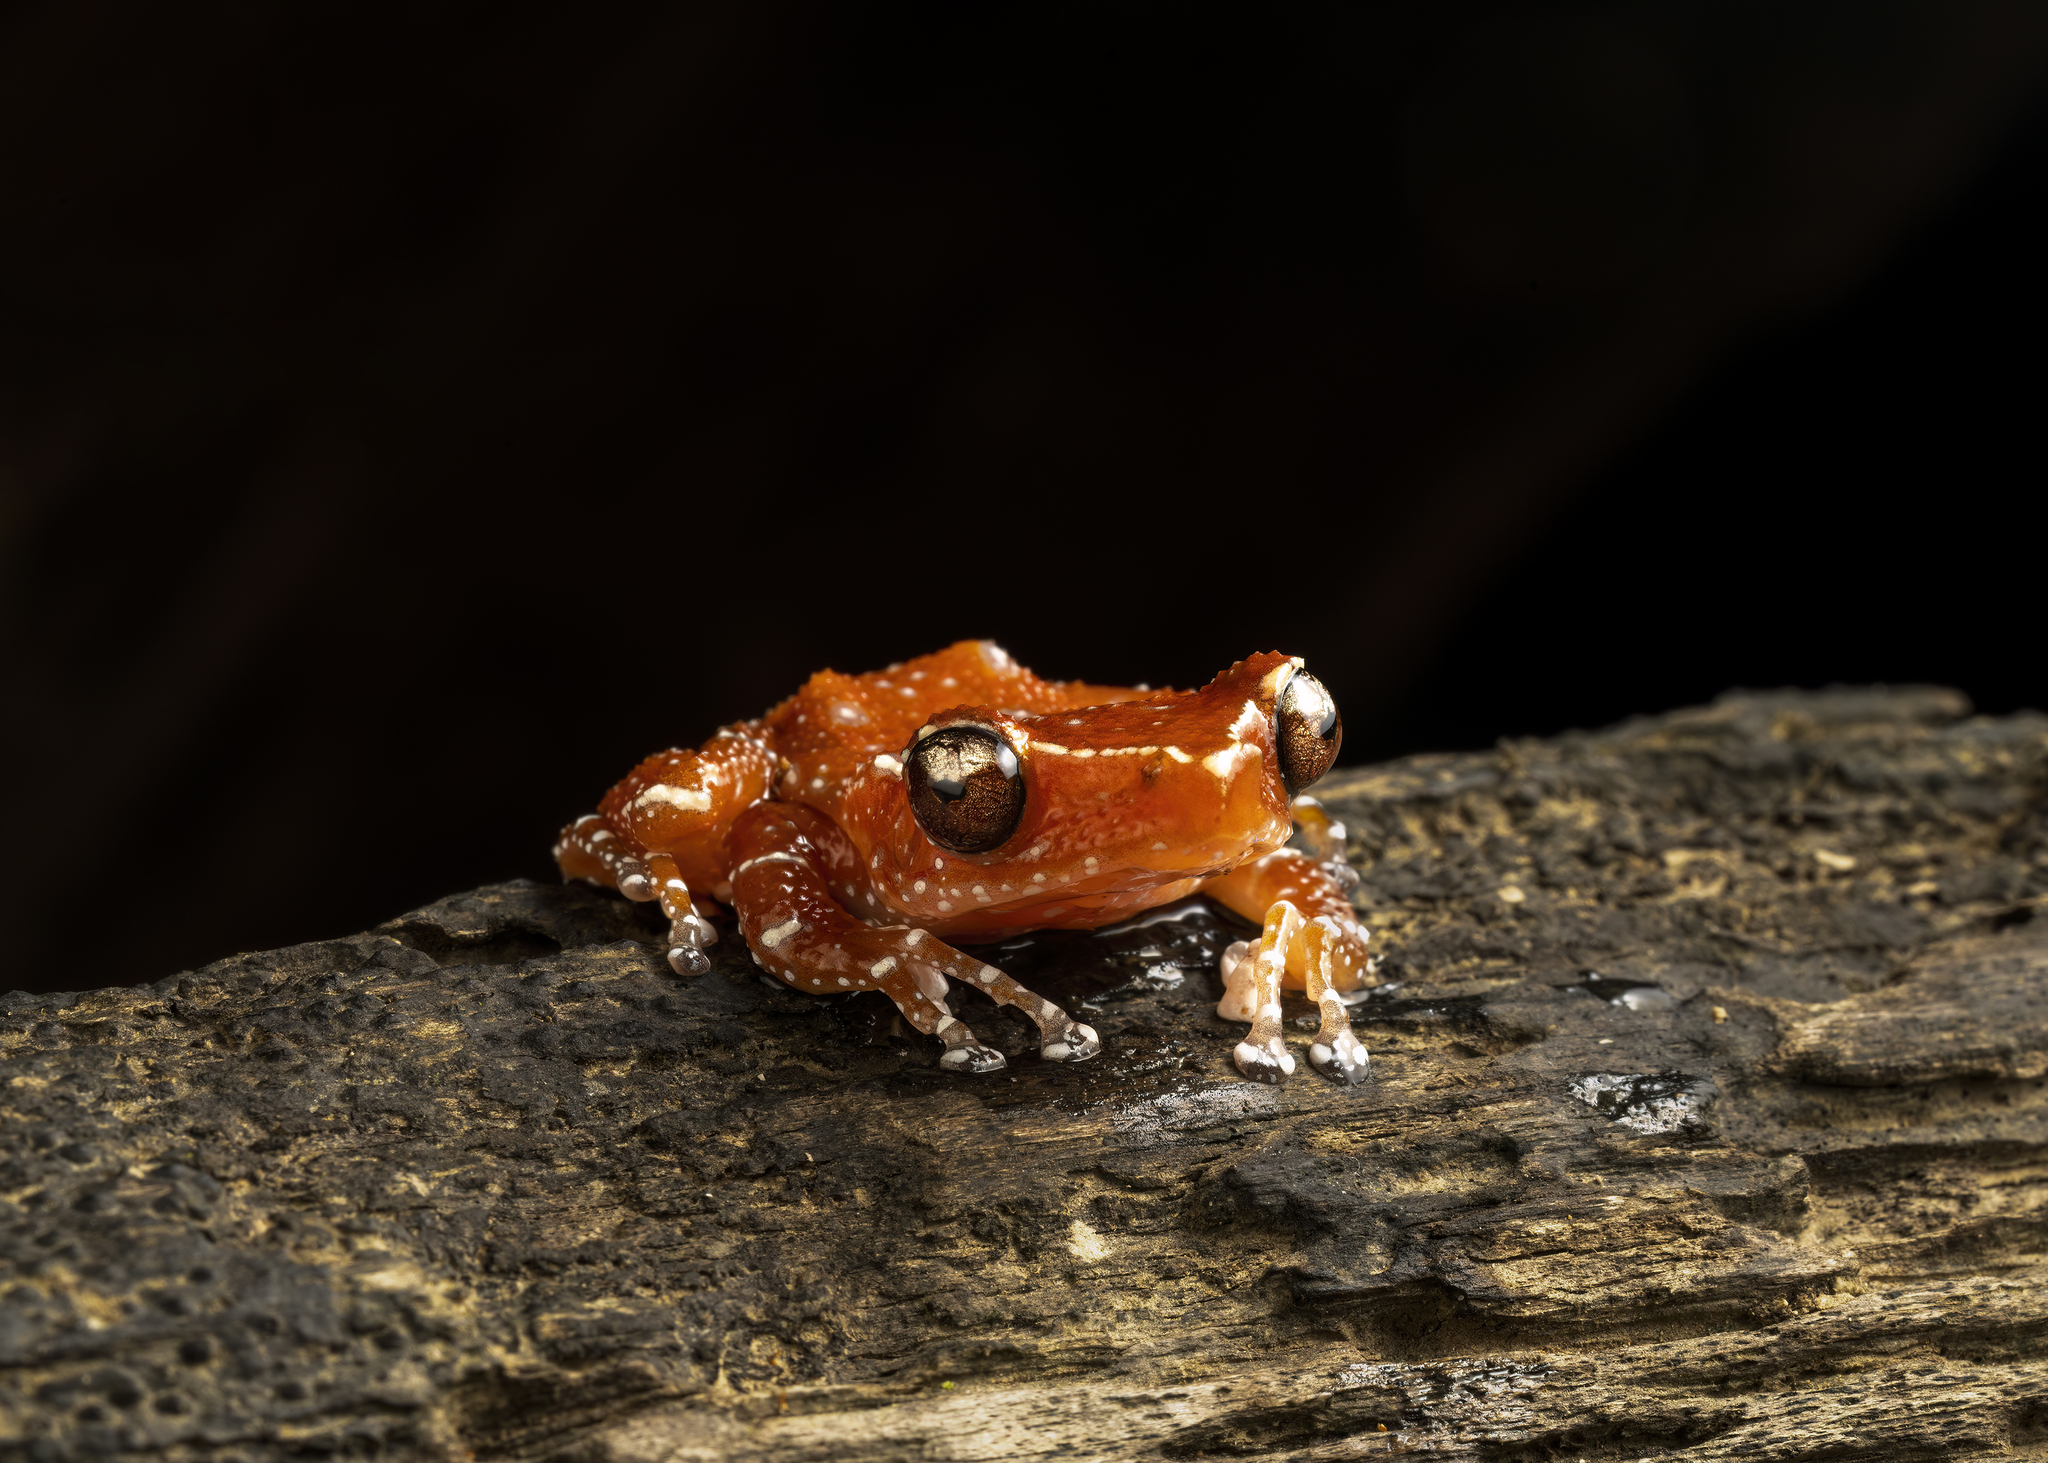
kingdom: Animalia
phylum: Chordata
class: Amphibia
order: Anura
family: Rhacophoridae
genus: Nyctixalus
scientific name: Nyctixalus pictus
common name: White-spotted tree frog
